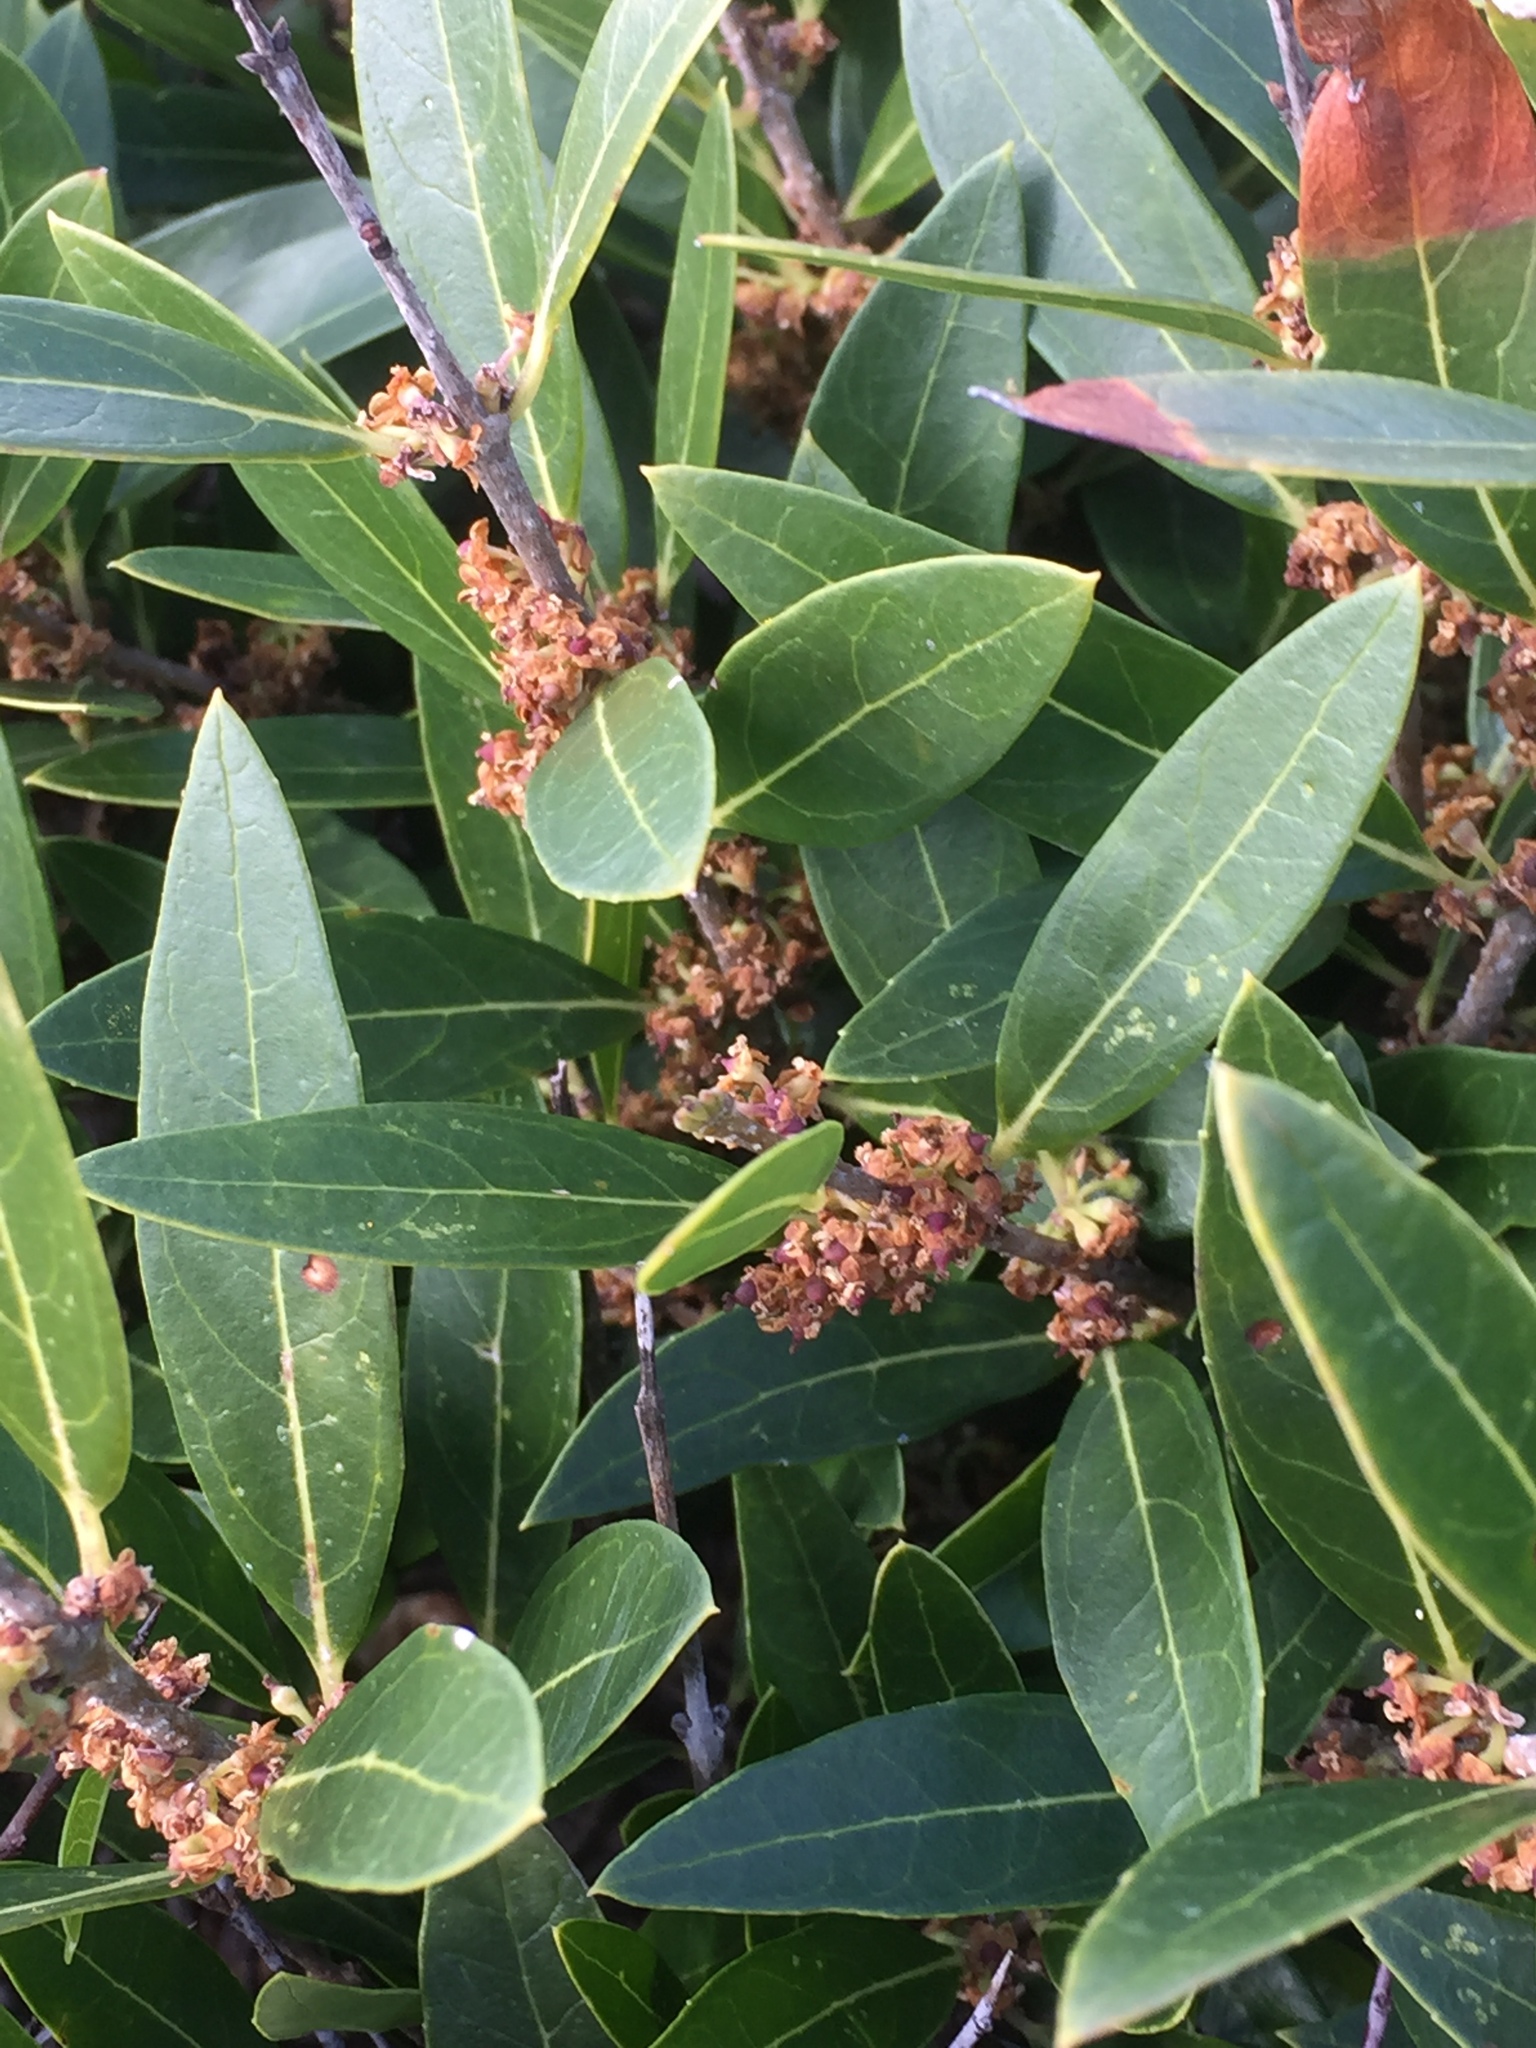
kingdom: Plantae
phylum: Tracheophyta
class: Magnoliopsida
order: Lamiales
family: Oleaceae
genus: Phillyrea
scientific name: Phillyrea latifolia
